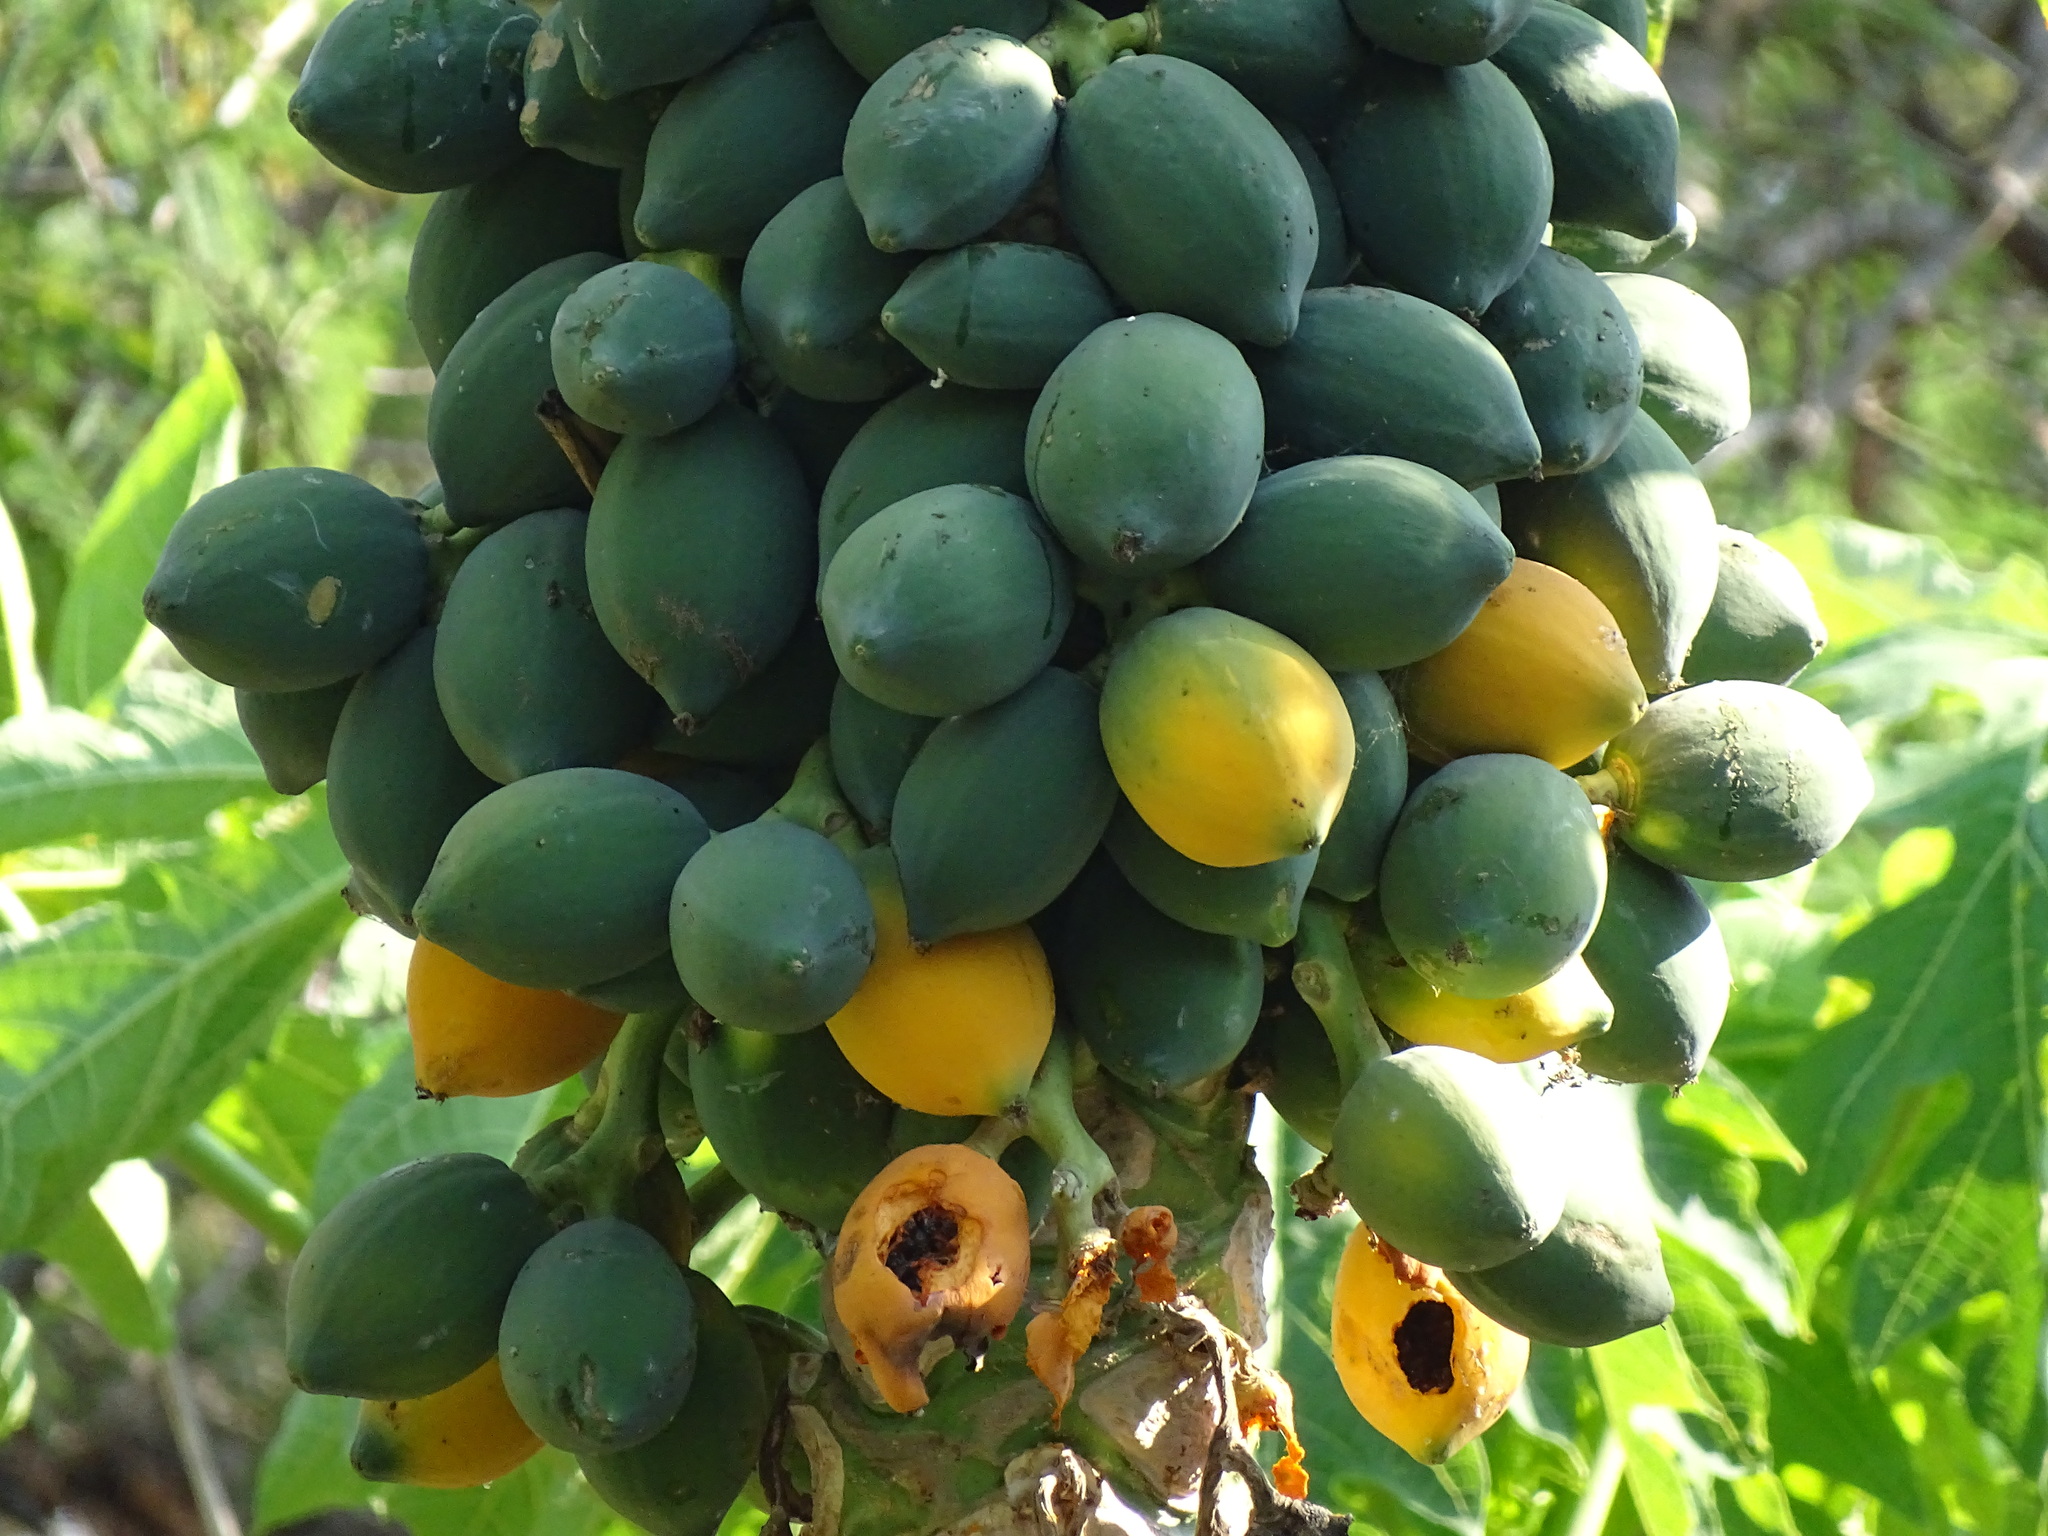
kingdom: Plantae
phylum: Tracheophyta
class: Magnoliopsida
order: Brassicales
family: Caricaceae
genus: Carica
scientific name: Carica papaya
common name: Papaya
